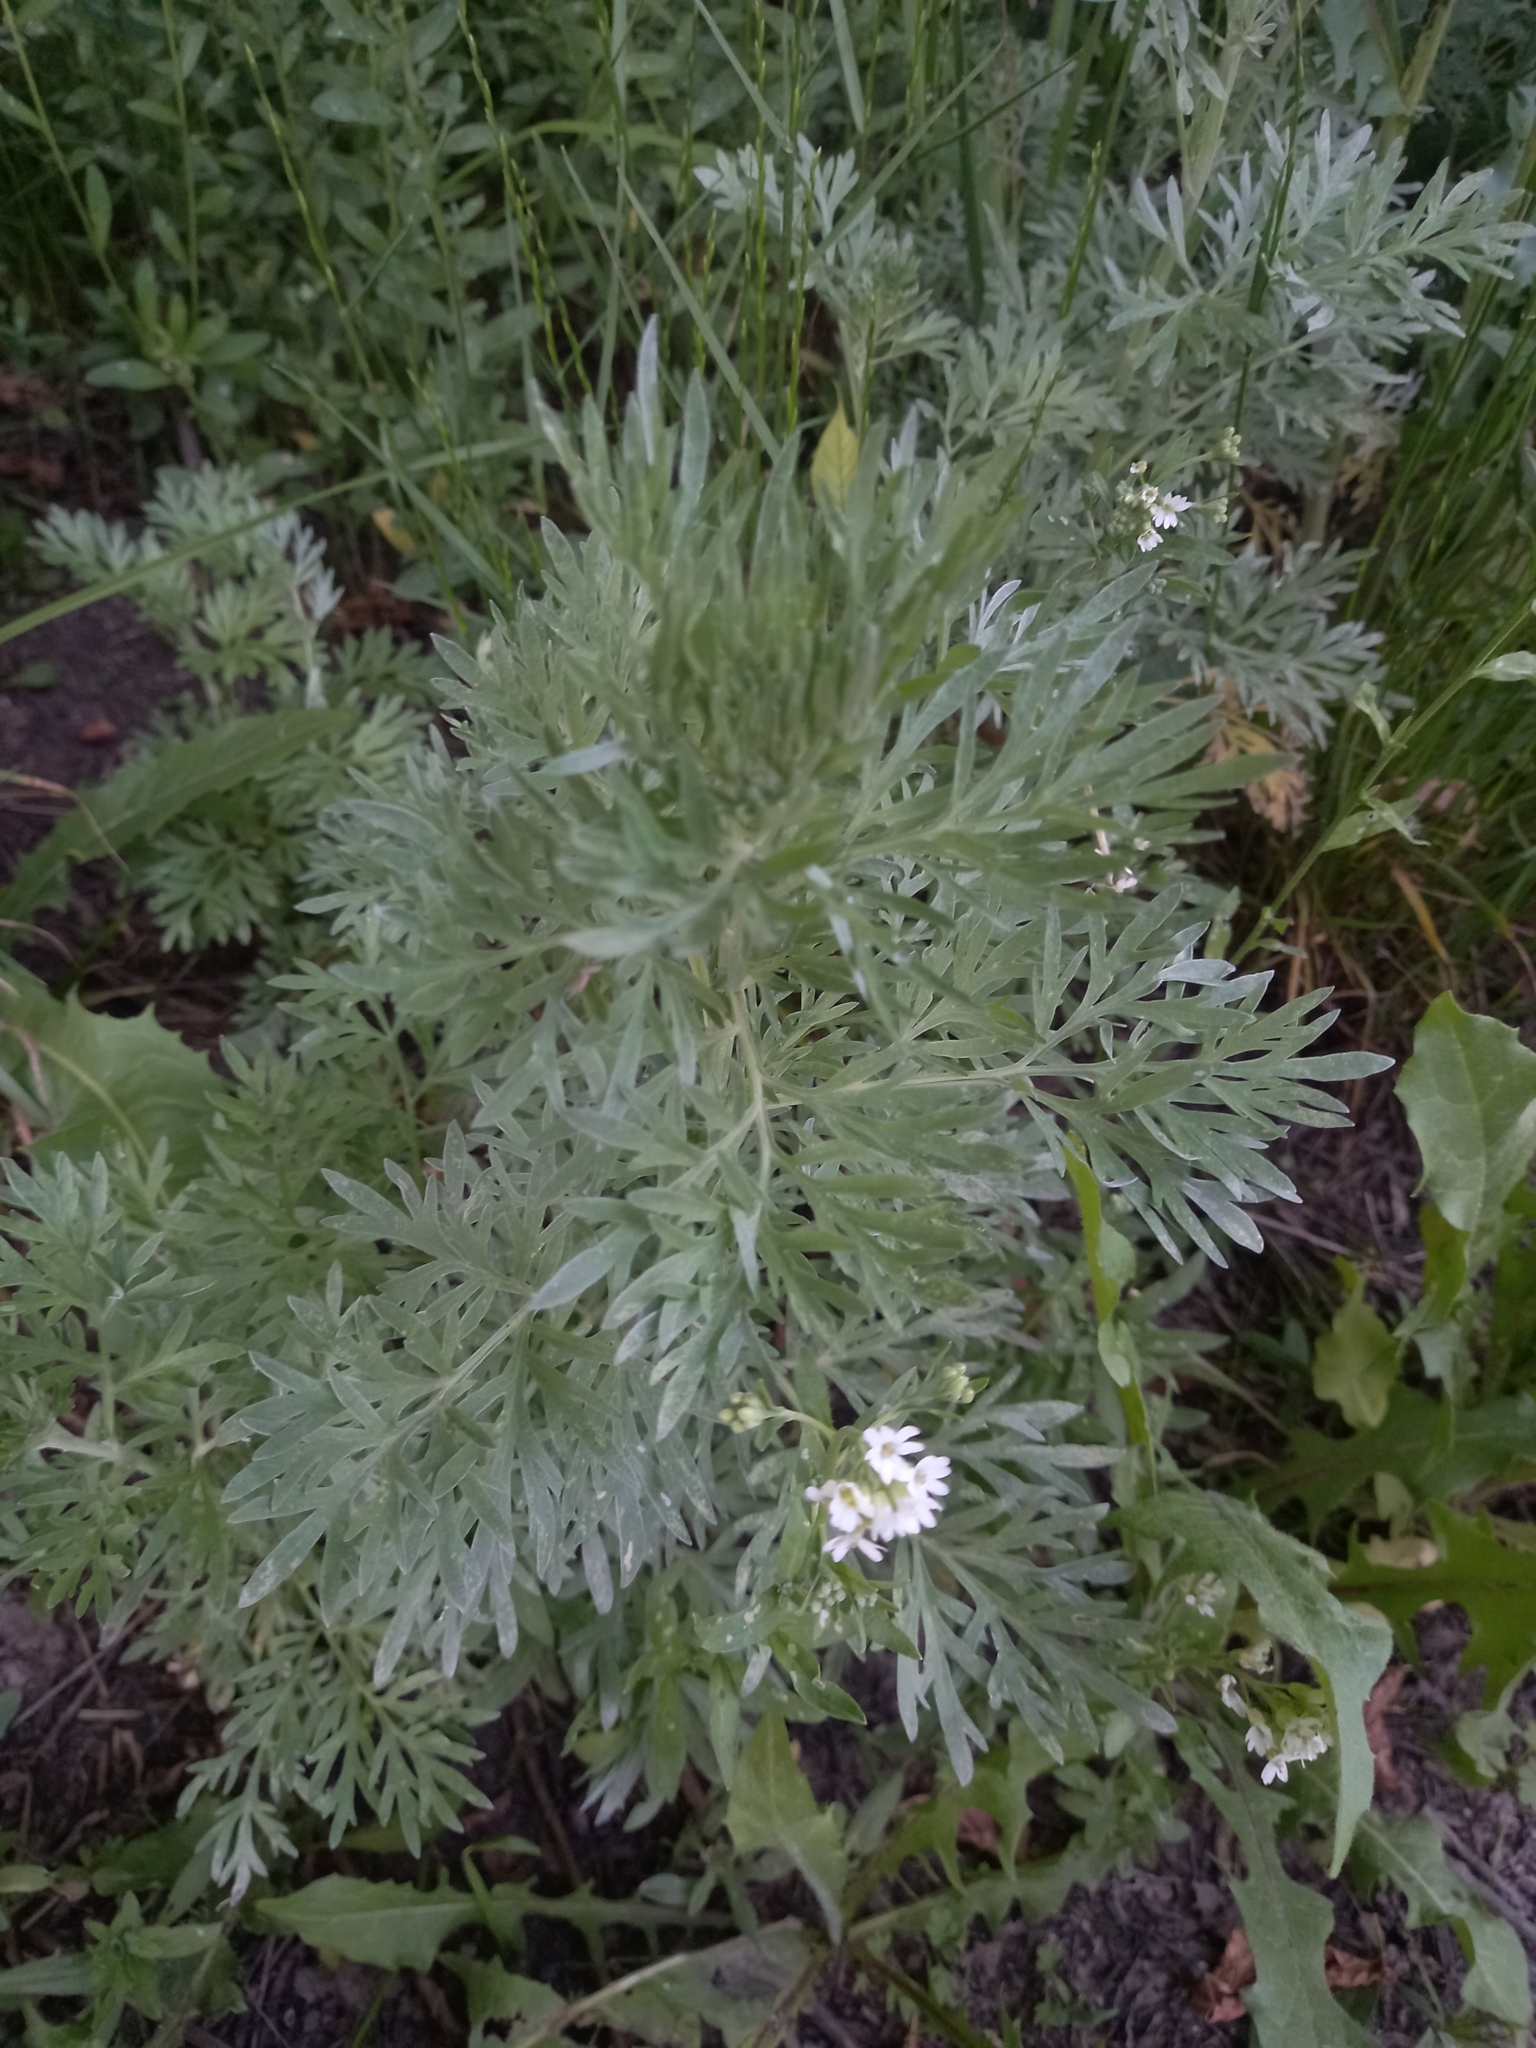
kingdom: Plantae
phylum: Tracheophyta
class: Magnoliopsida
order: Brassicales
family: Brassicaceae
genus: Berteroa
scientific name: Berteroa incana
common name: Hoary alison
